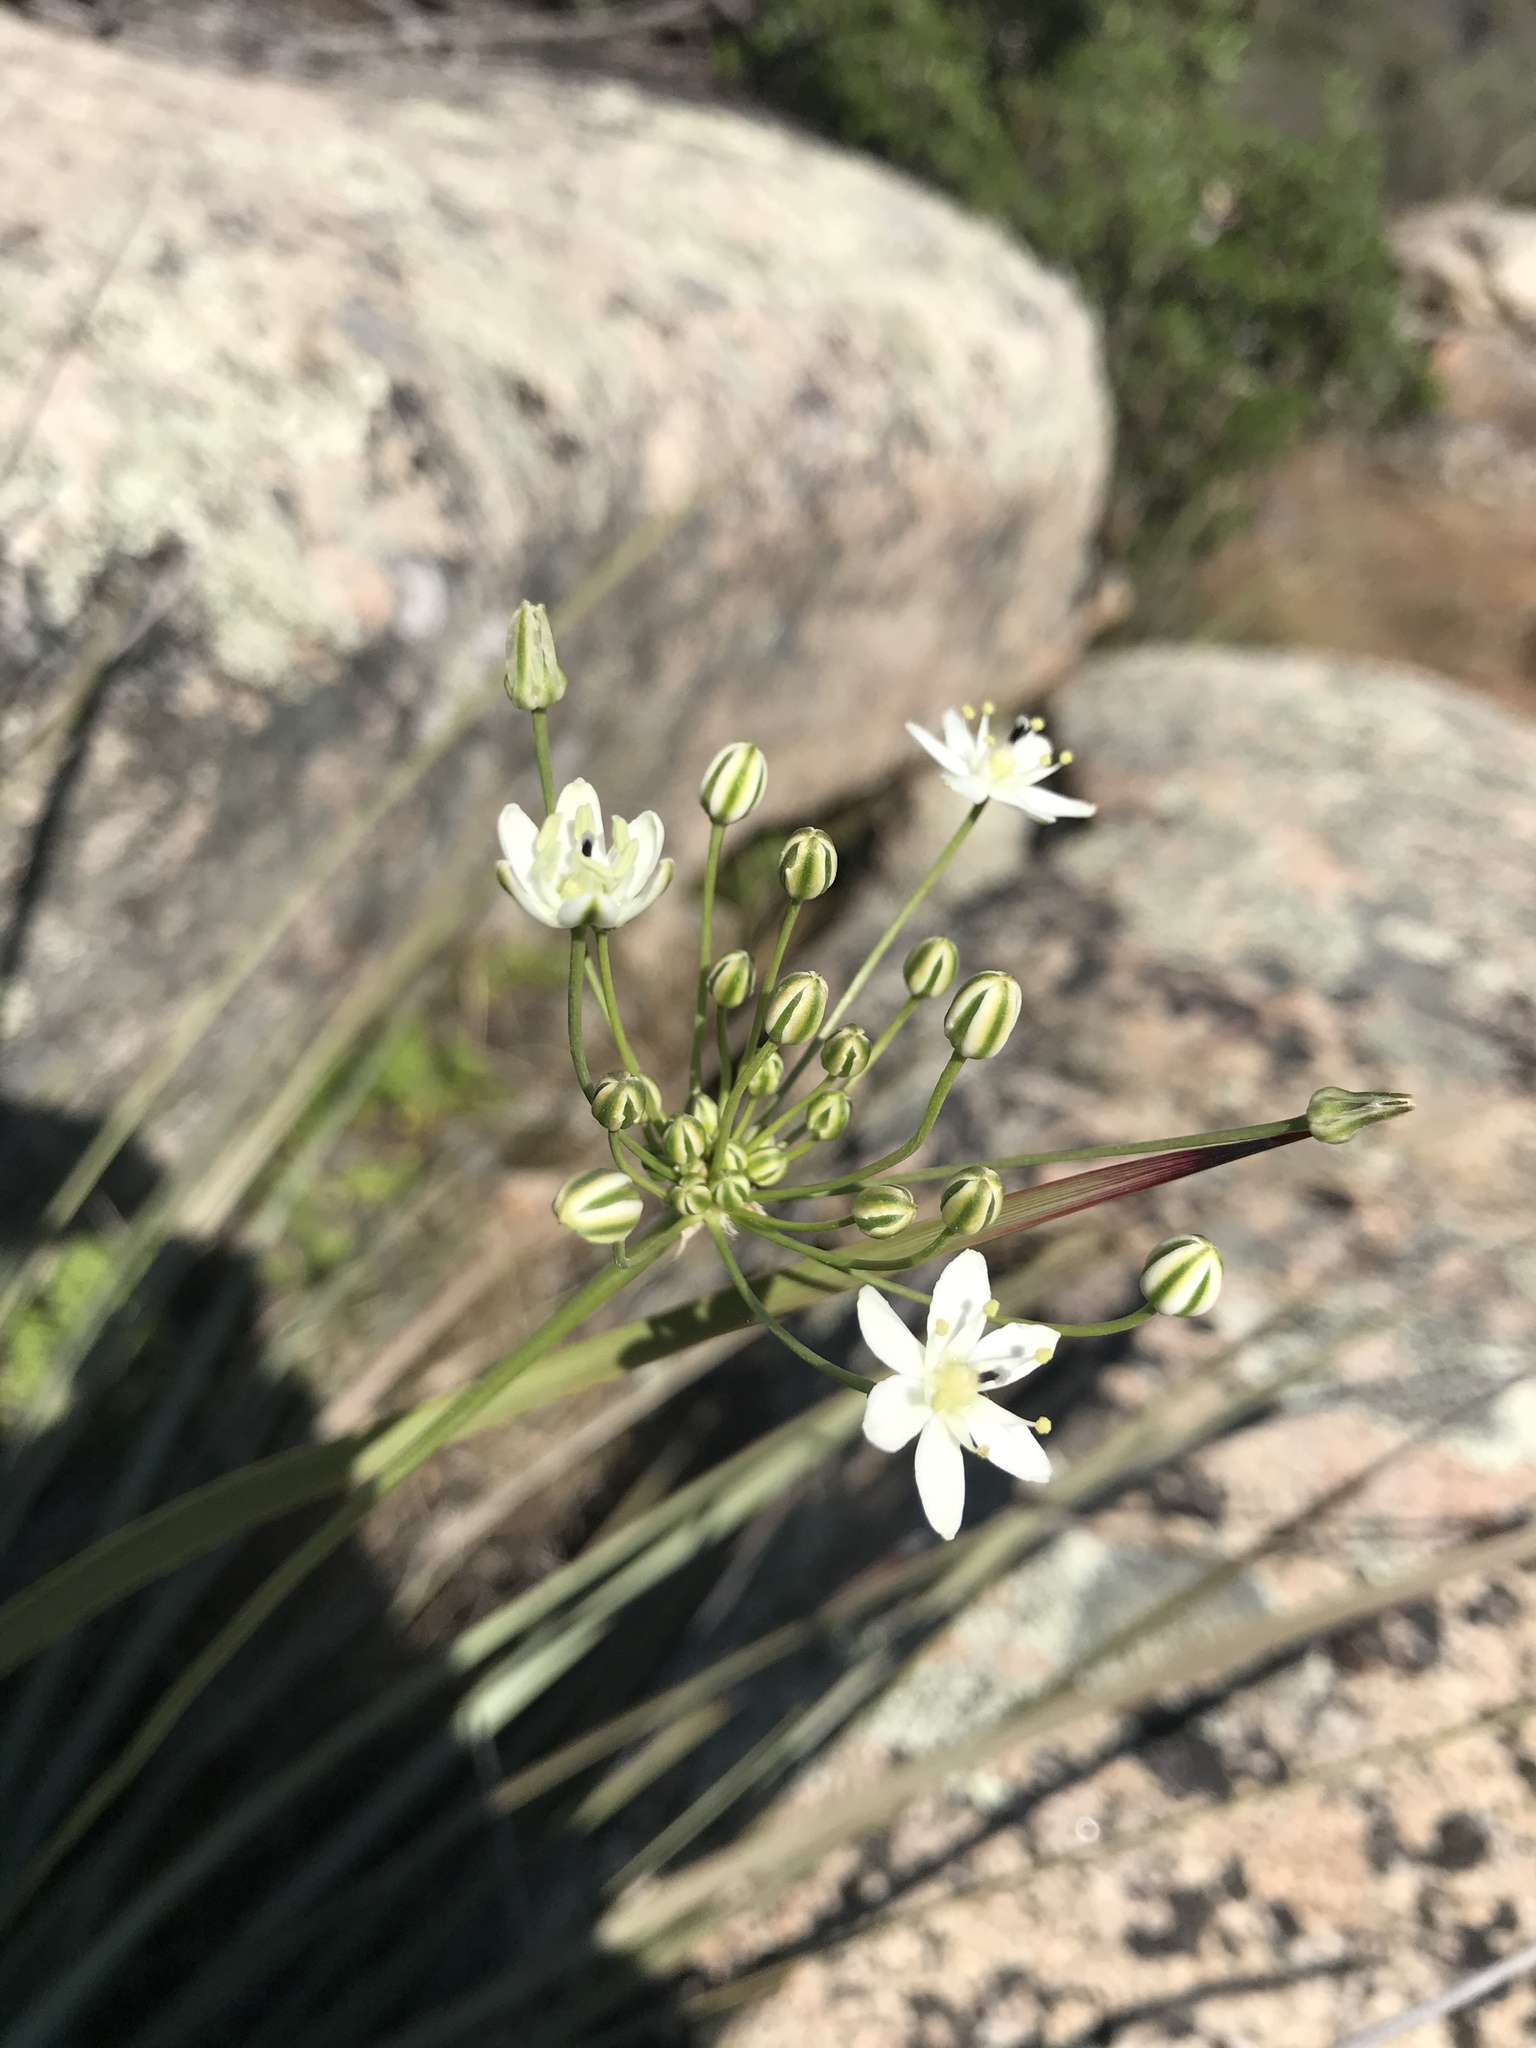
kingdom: Plantae
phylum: Tracheophyta
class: Liliopsida
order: Asparagales
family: Asparagaceae
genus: Muilla
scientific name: Muilla maritima
